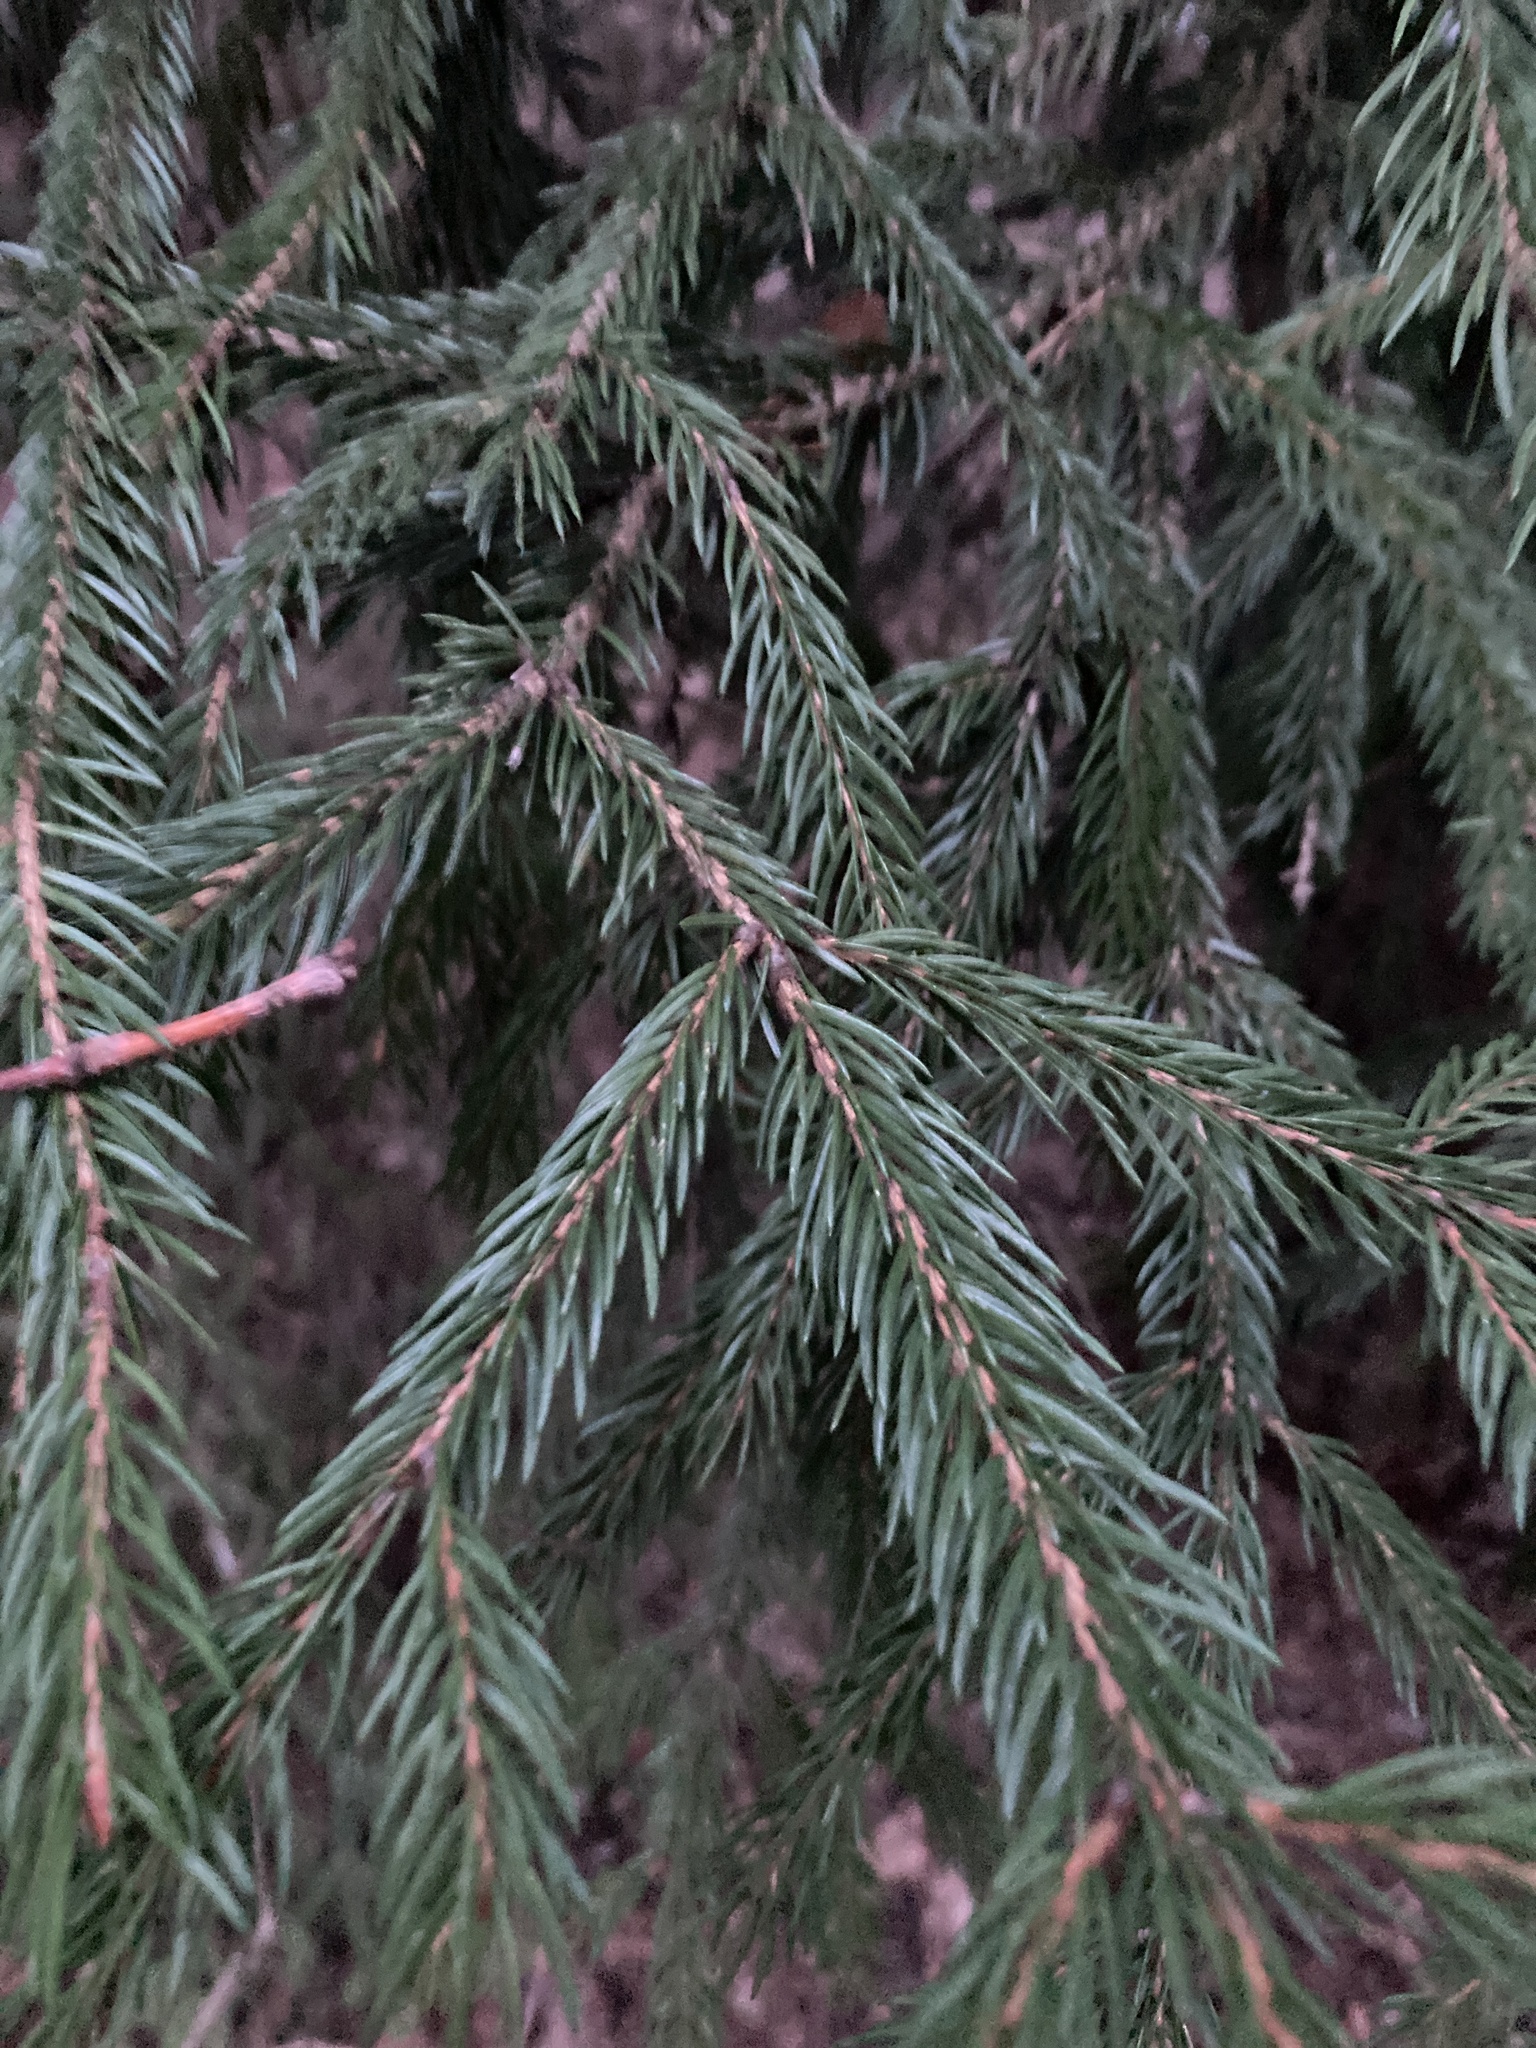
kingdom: Plantae
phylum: Tracheophyta
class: Pinopsida
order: Pinales
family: Pinaceae
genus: Picea
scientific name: Picea abies
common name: Norway spruce
